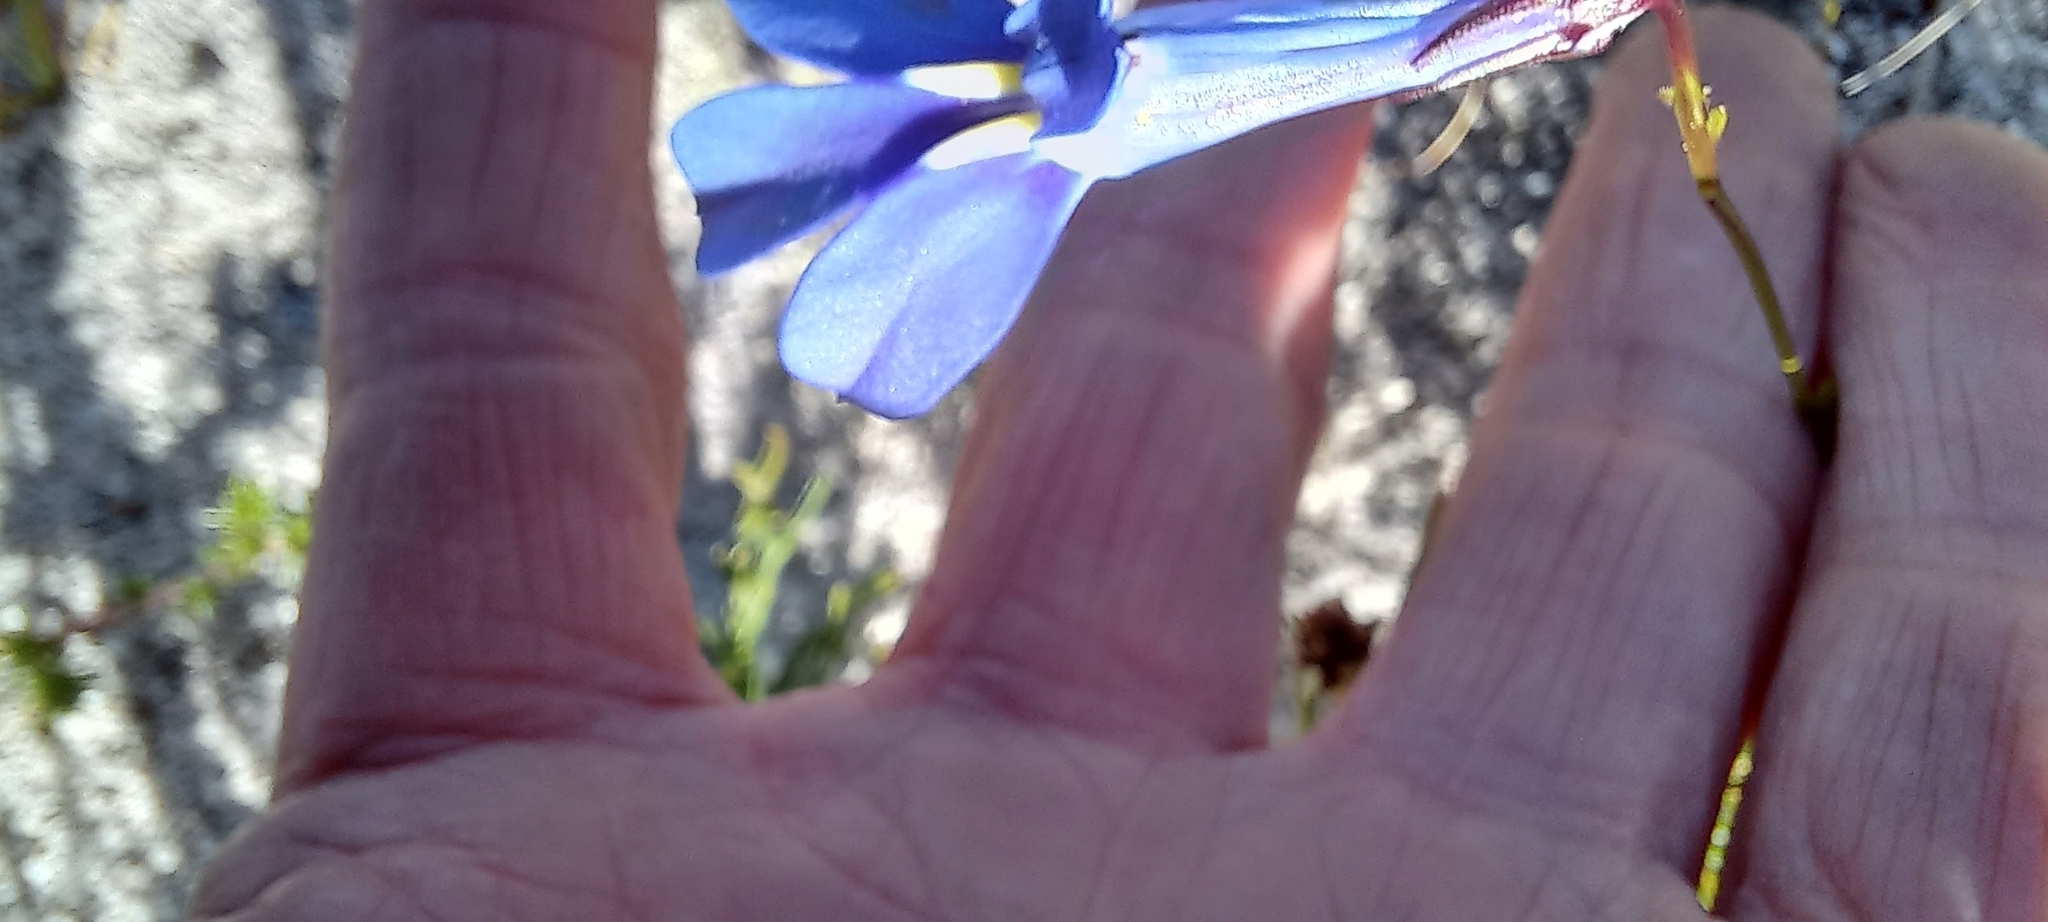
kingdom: Plantae
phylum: Tracheophyta
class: Magnoliopsida
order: Asterales
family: Campanulaceae
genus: Lobelia
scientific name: Lobelia coronopifolia
